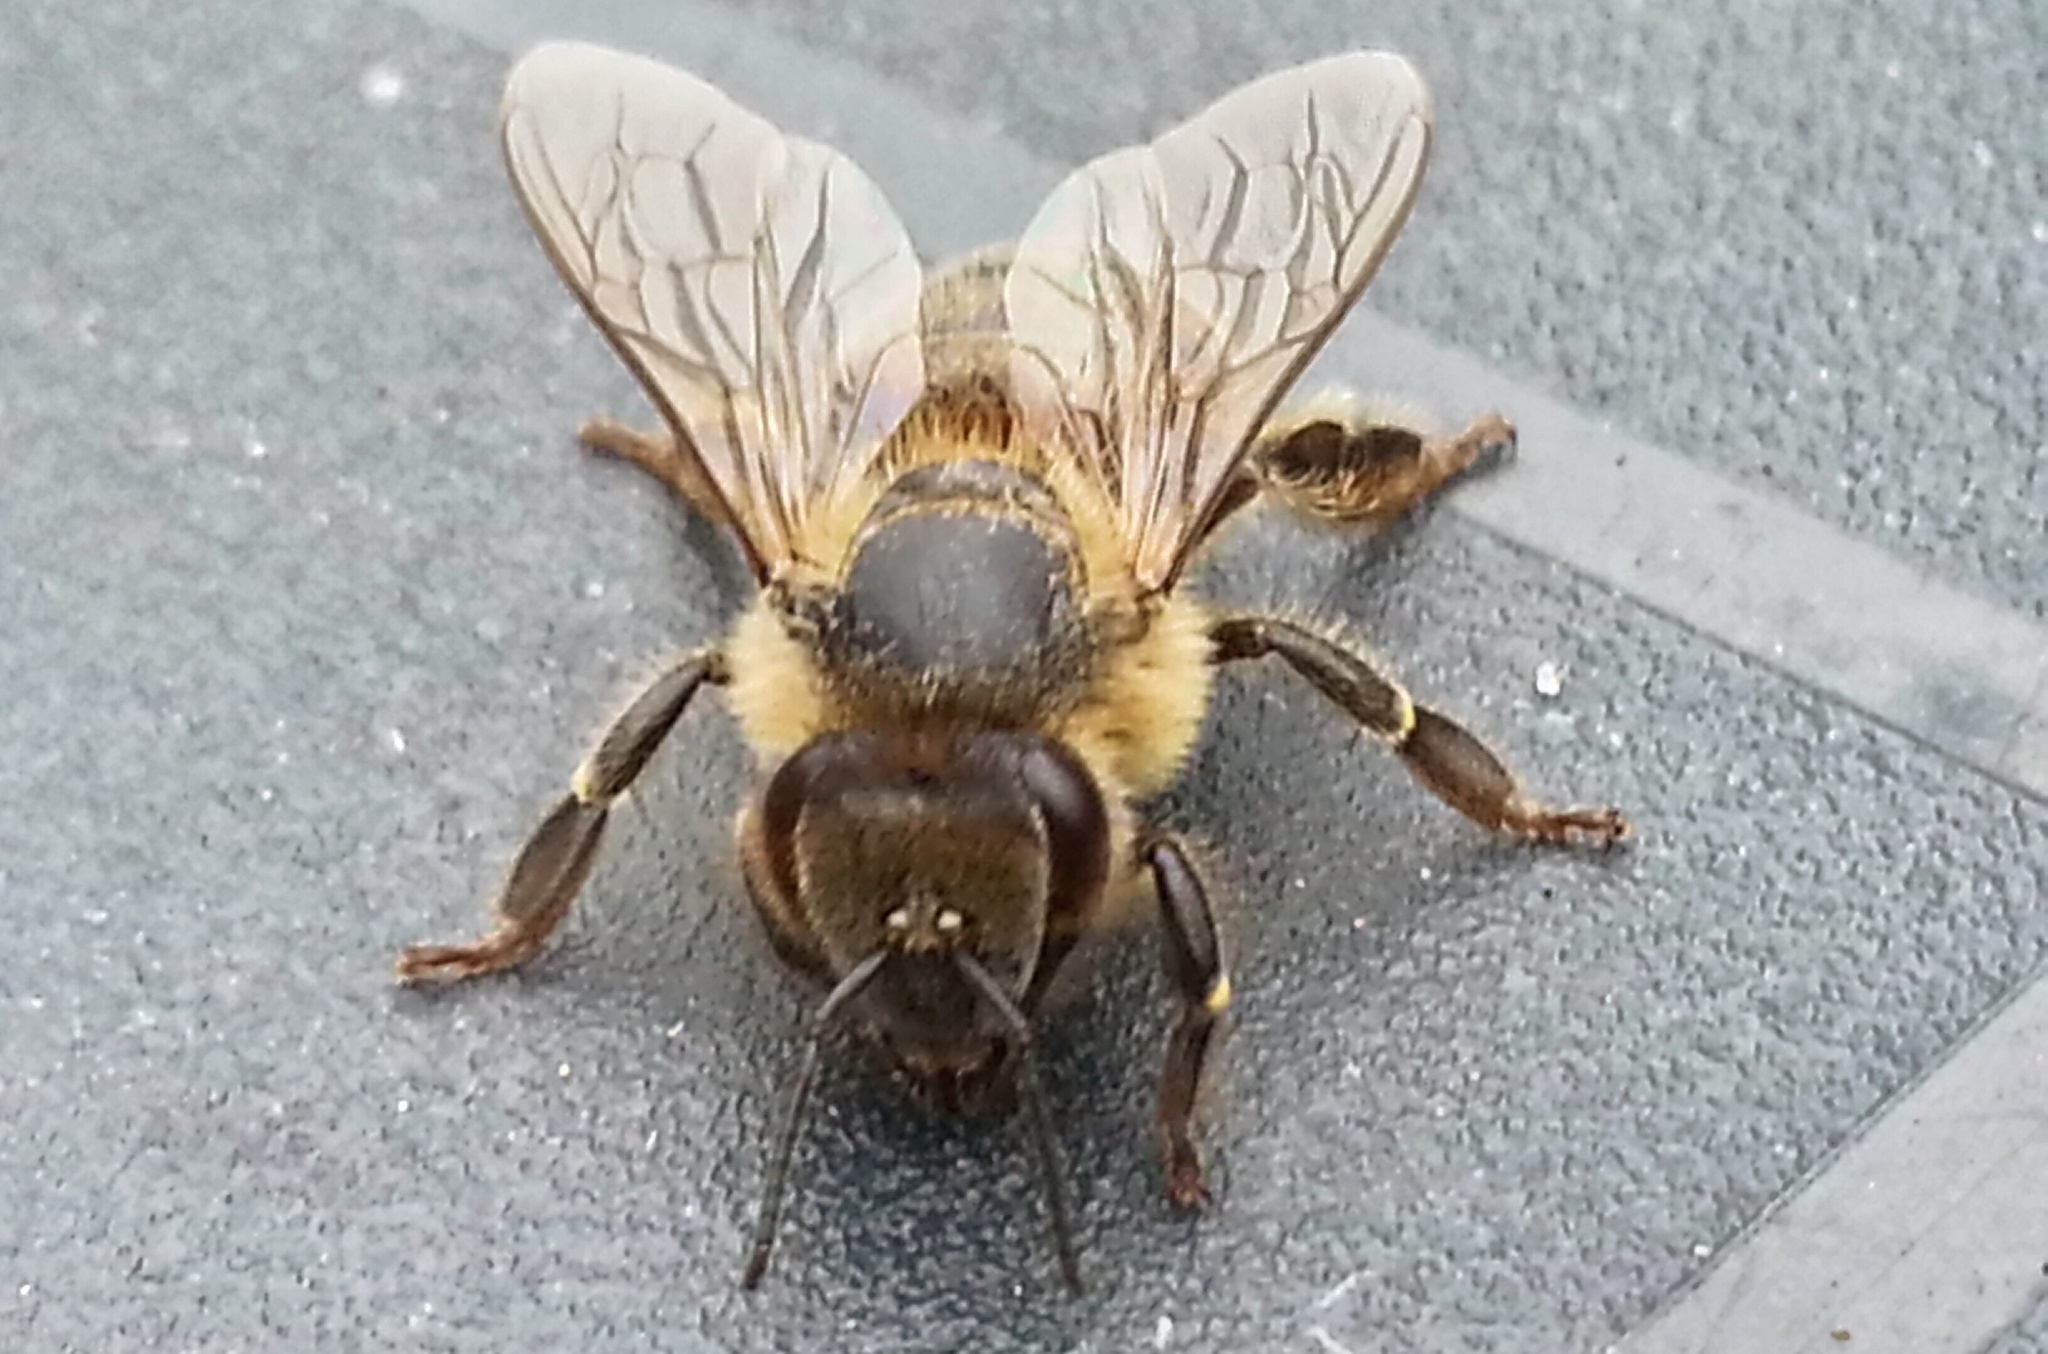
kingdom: Animalia
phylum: Arthropoda
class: Insecta
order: Hymenoptera
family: Apidae
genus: Apis
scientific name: Apis mellifera
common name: Honey bee
